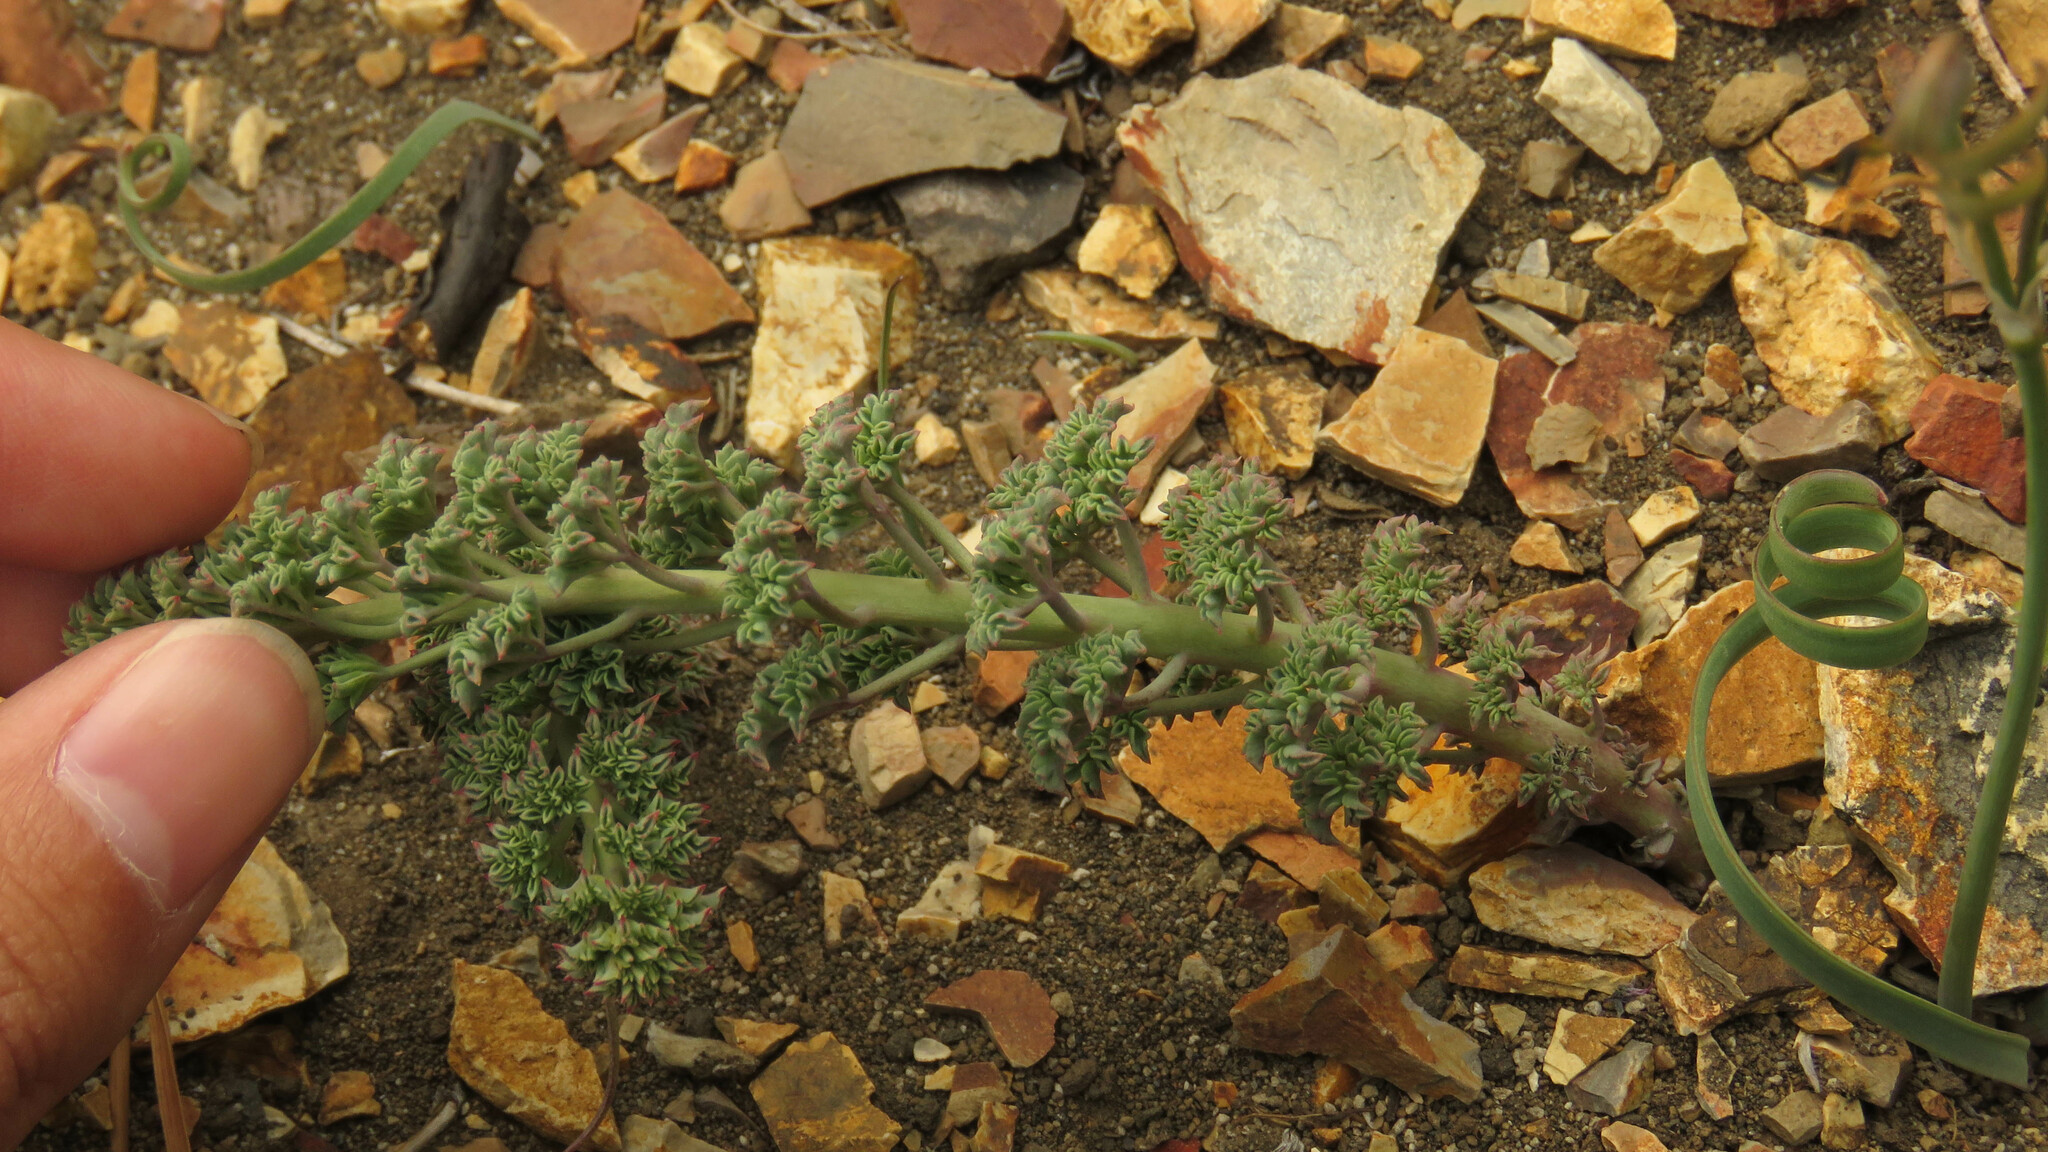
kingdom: Plantae
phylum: Tracheophyta
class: Magnoliopsida
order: Brassicales
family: Tropaeolaceae
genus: Tropaeolum
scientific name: Tropaeolum incisum
